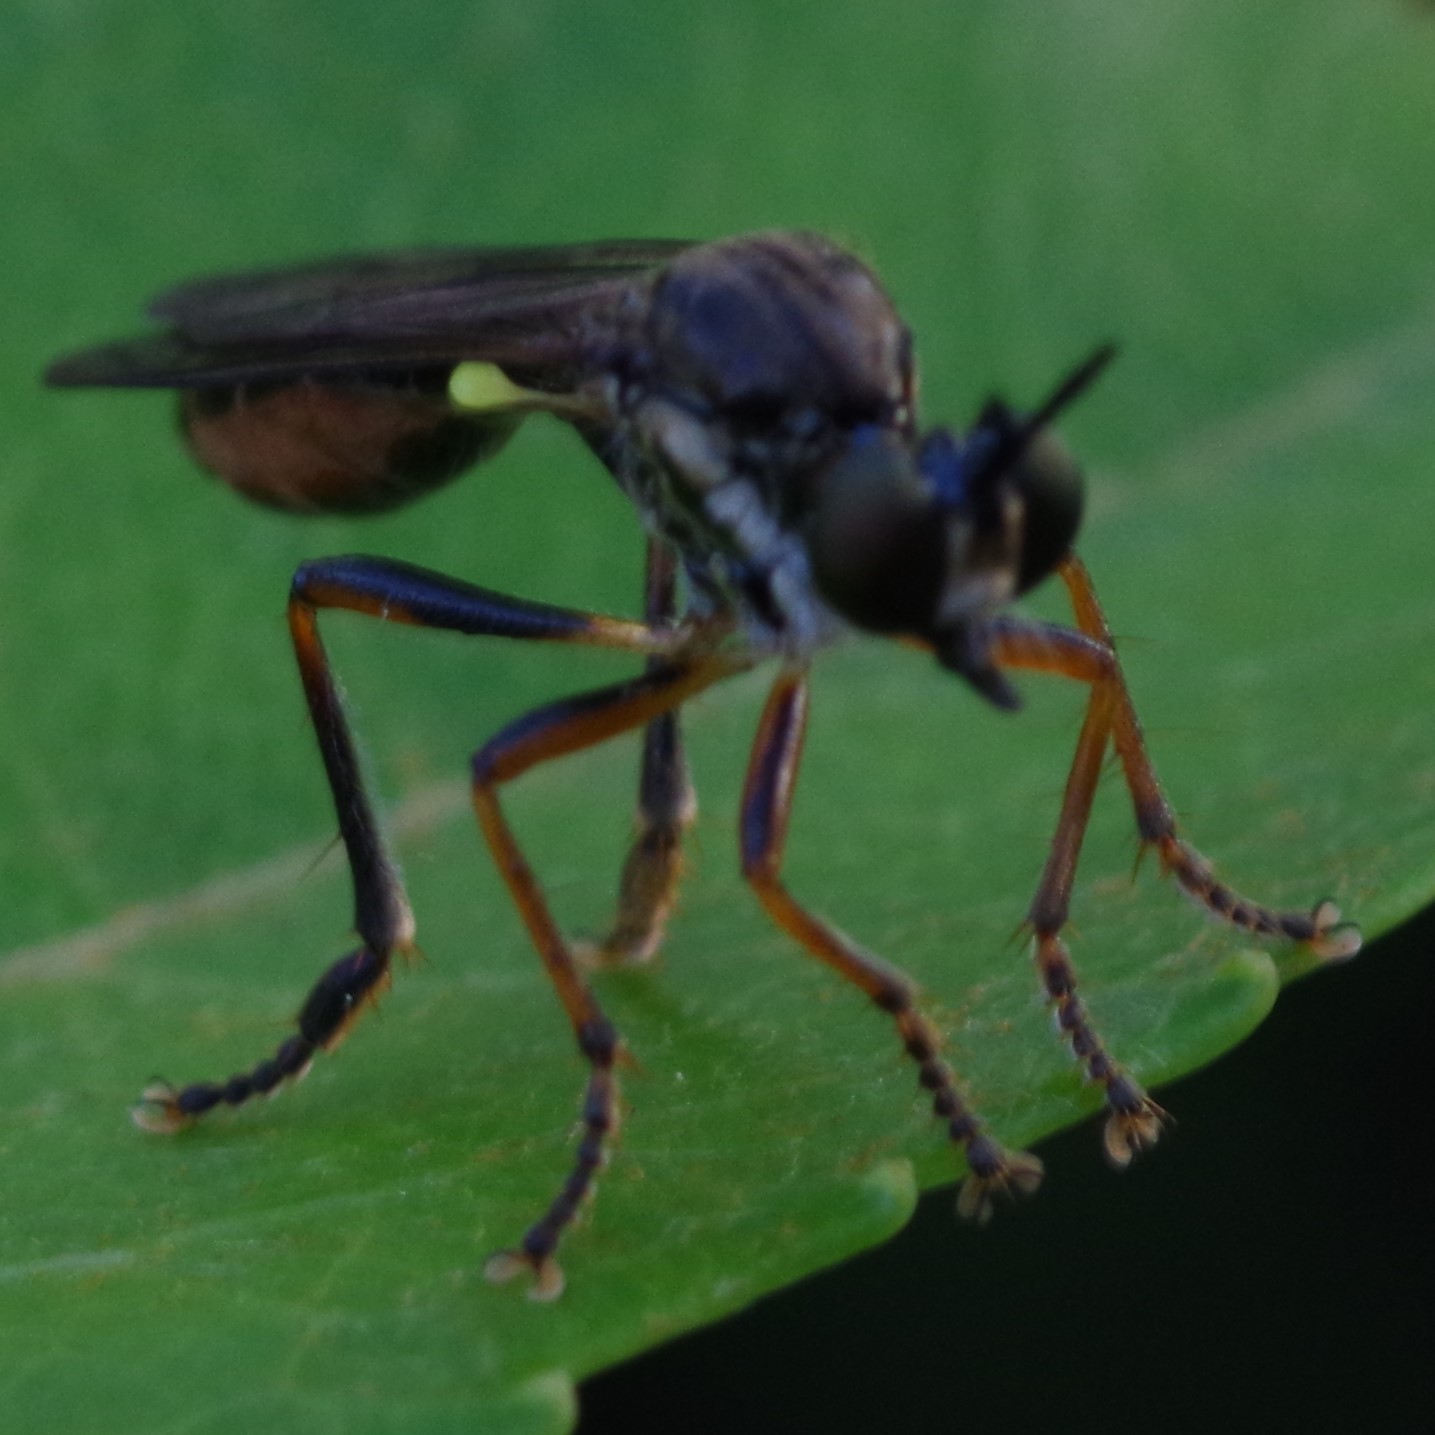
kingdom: Animalia
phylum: Arthropoda
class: Insecta
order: Diptera
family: Asilidae
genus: Dioctria
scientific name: Dioctria hyalipennis
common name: Stripe-legged robberfly
